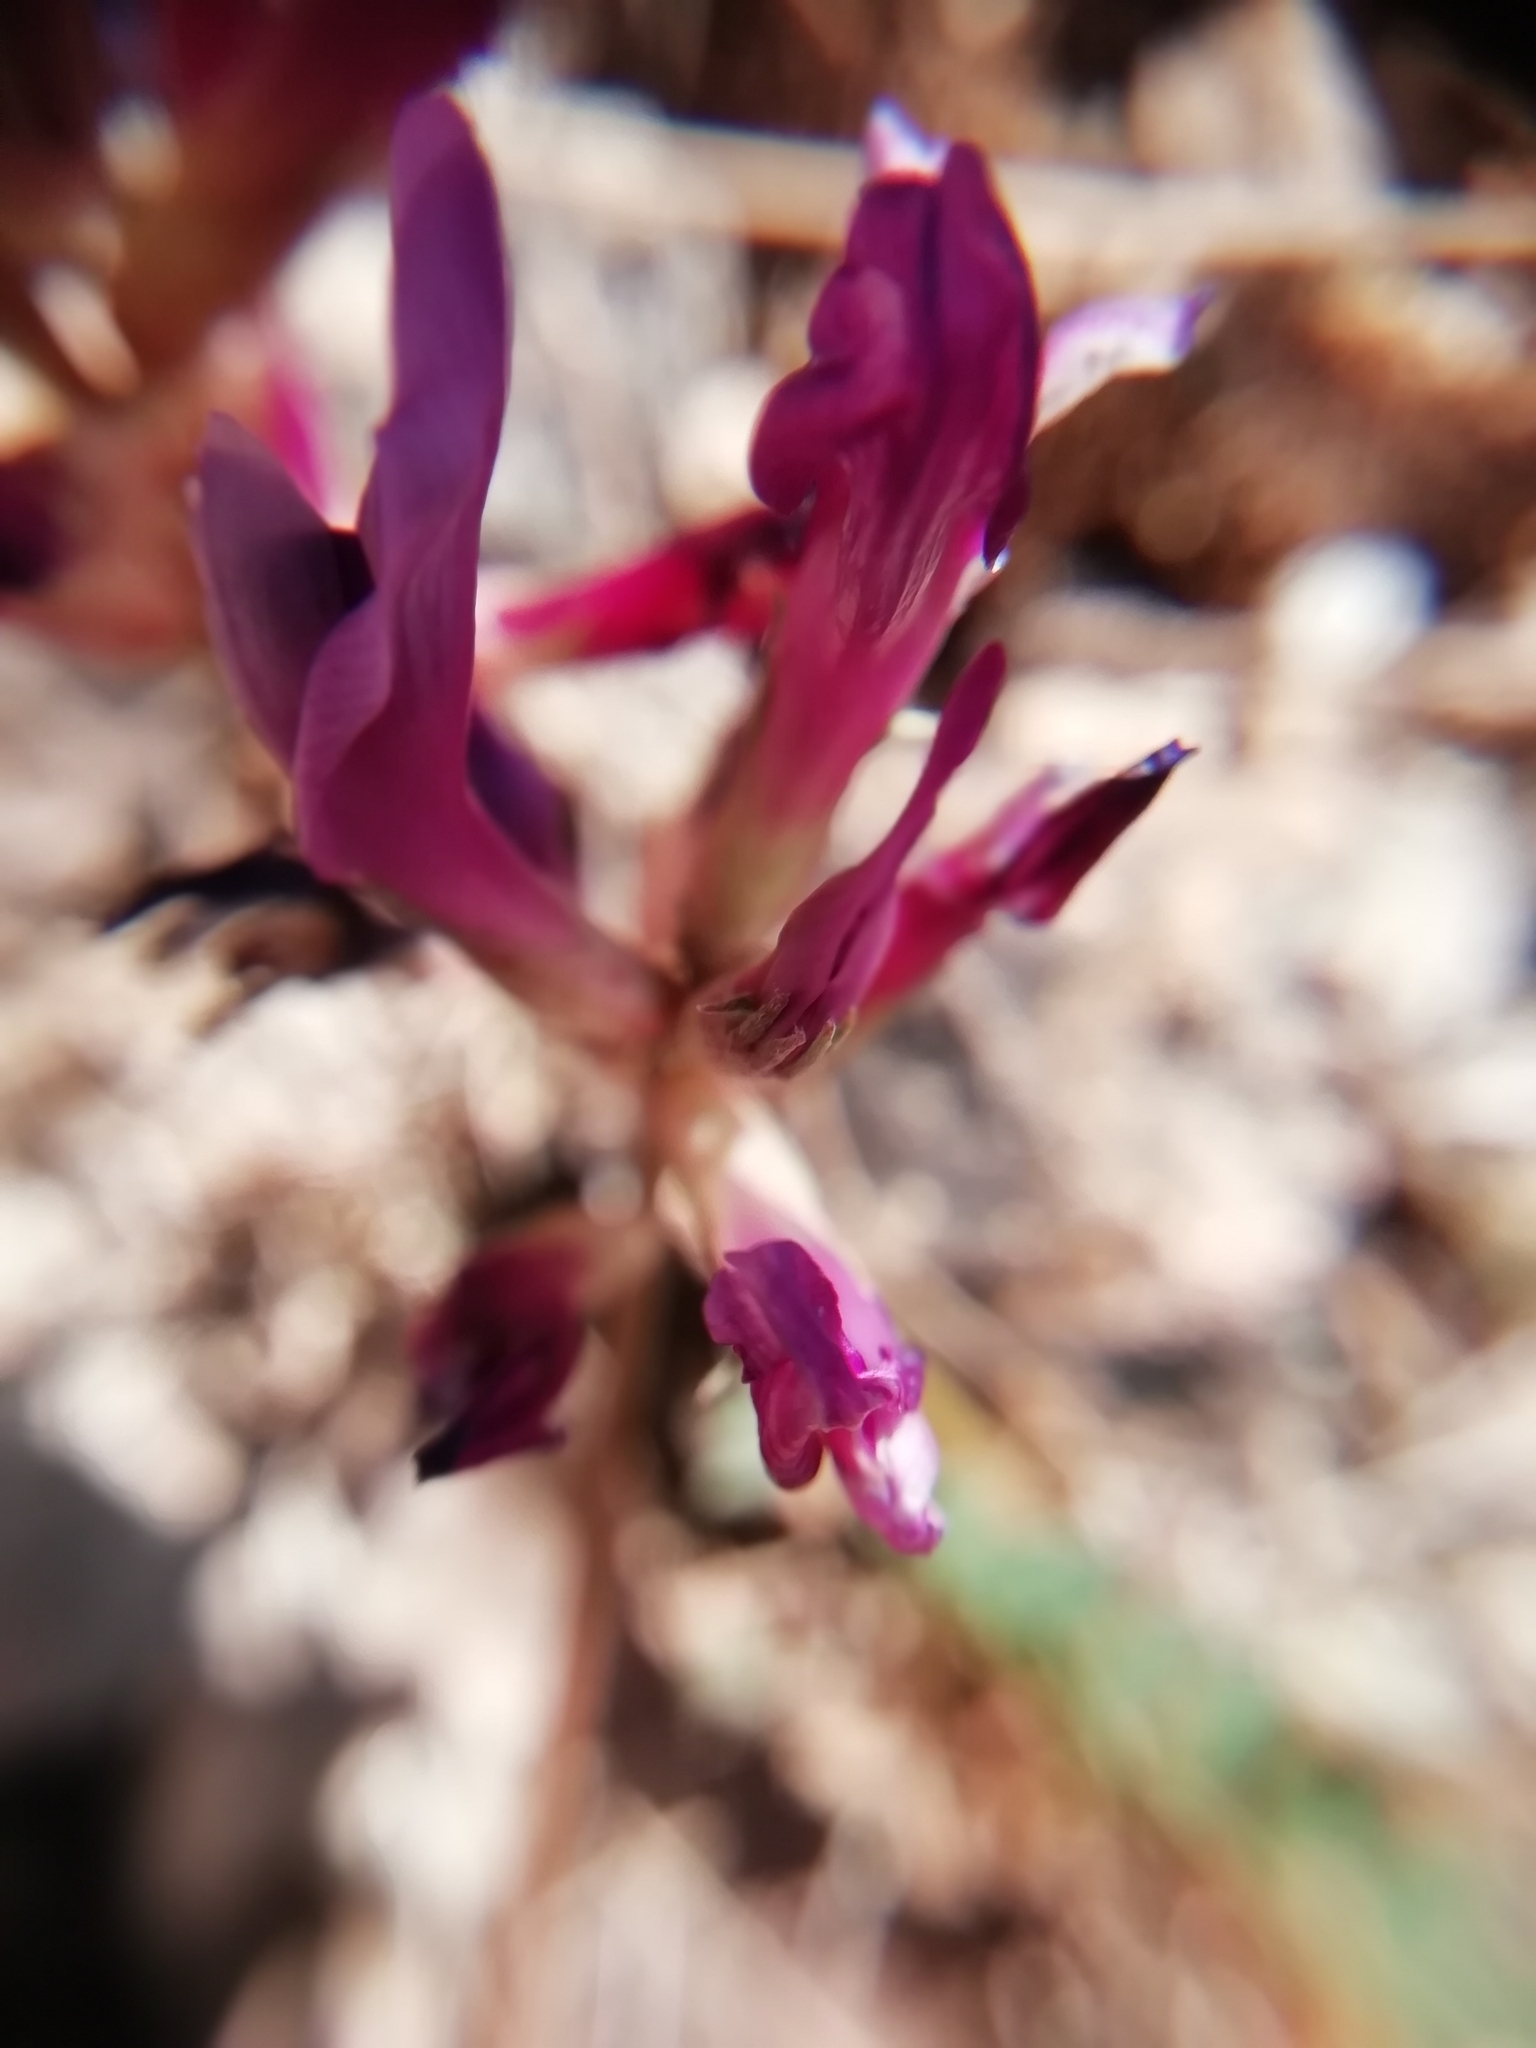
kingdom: Plantae
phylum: Tracheophyta
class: Magnoliopsida
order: Fabales
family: Fabaceae
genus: Astragalus
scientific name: Astragalus monspessulanus
